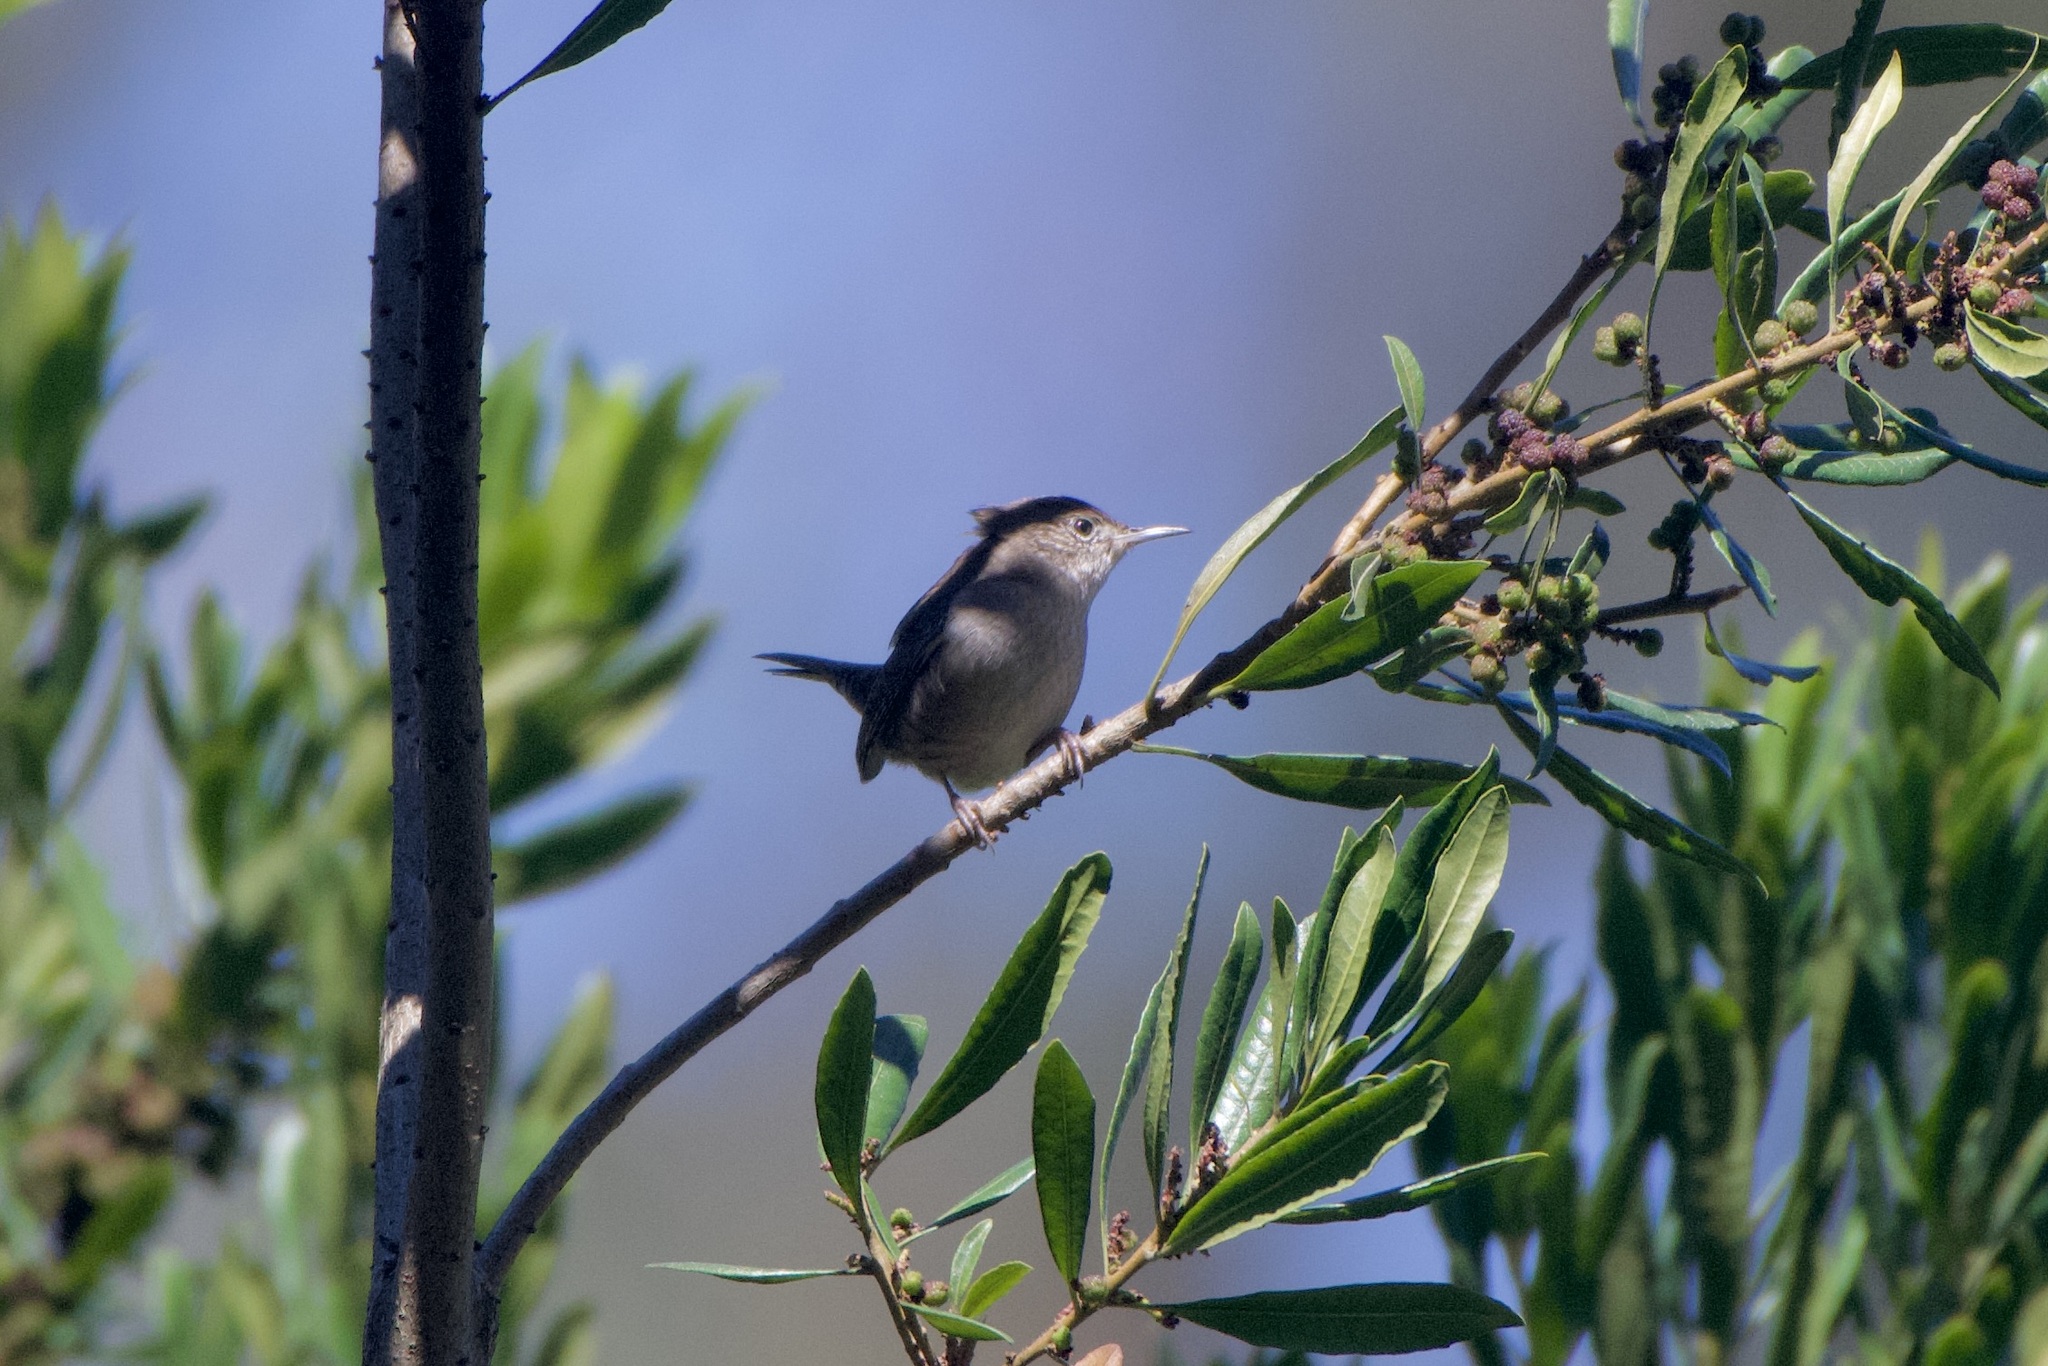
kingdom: Animalia
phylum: Chordata
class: Aves
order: Passeriformes
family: Troglodytidae
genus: Troglodytes
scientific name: Troglodytes aedon
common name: House wren
